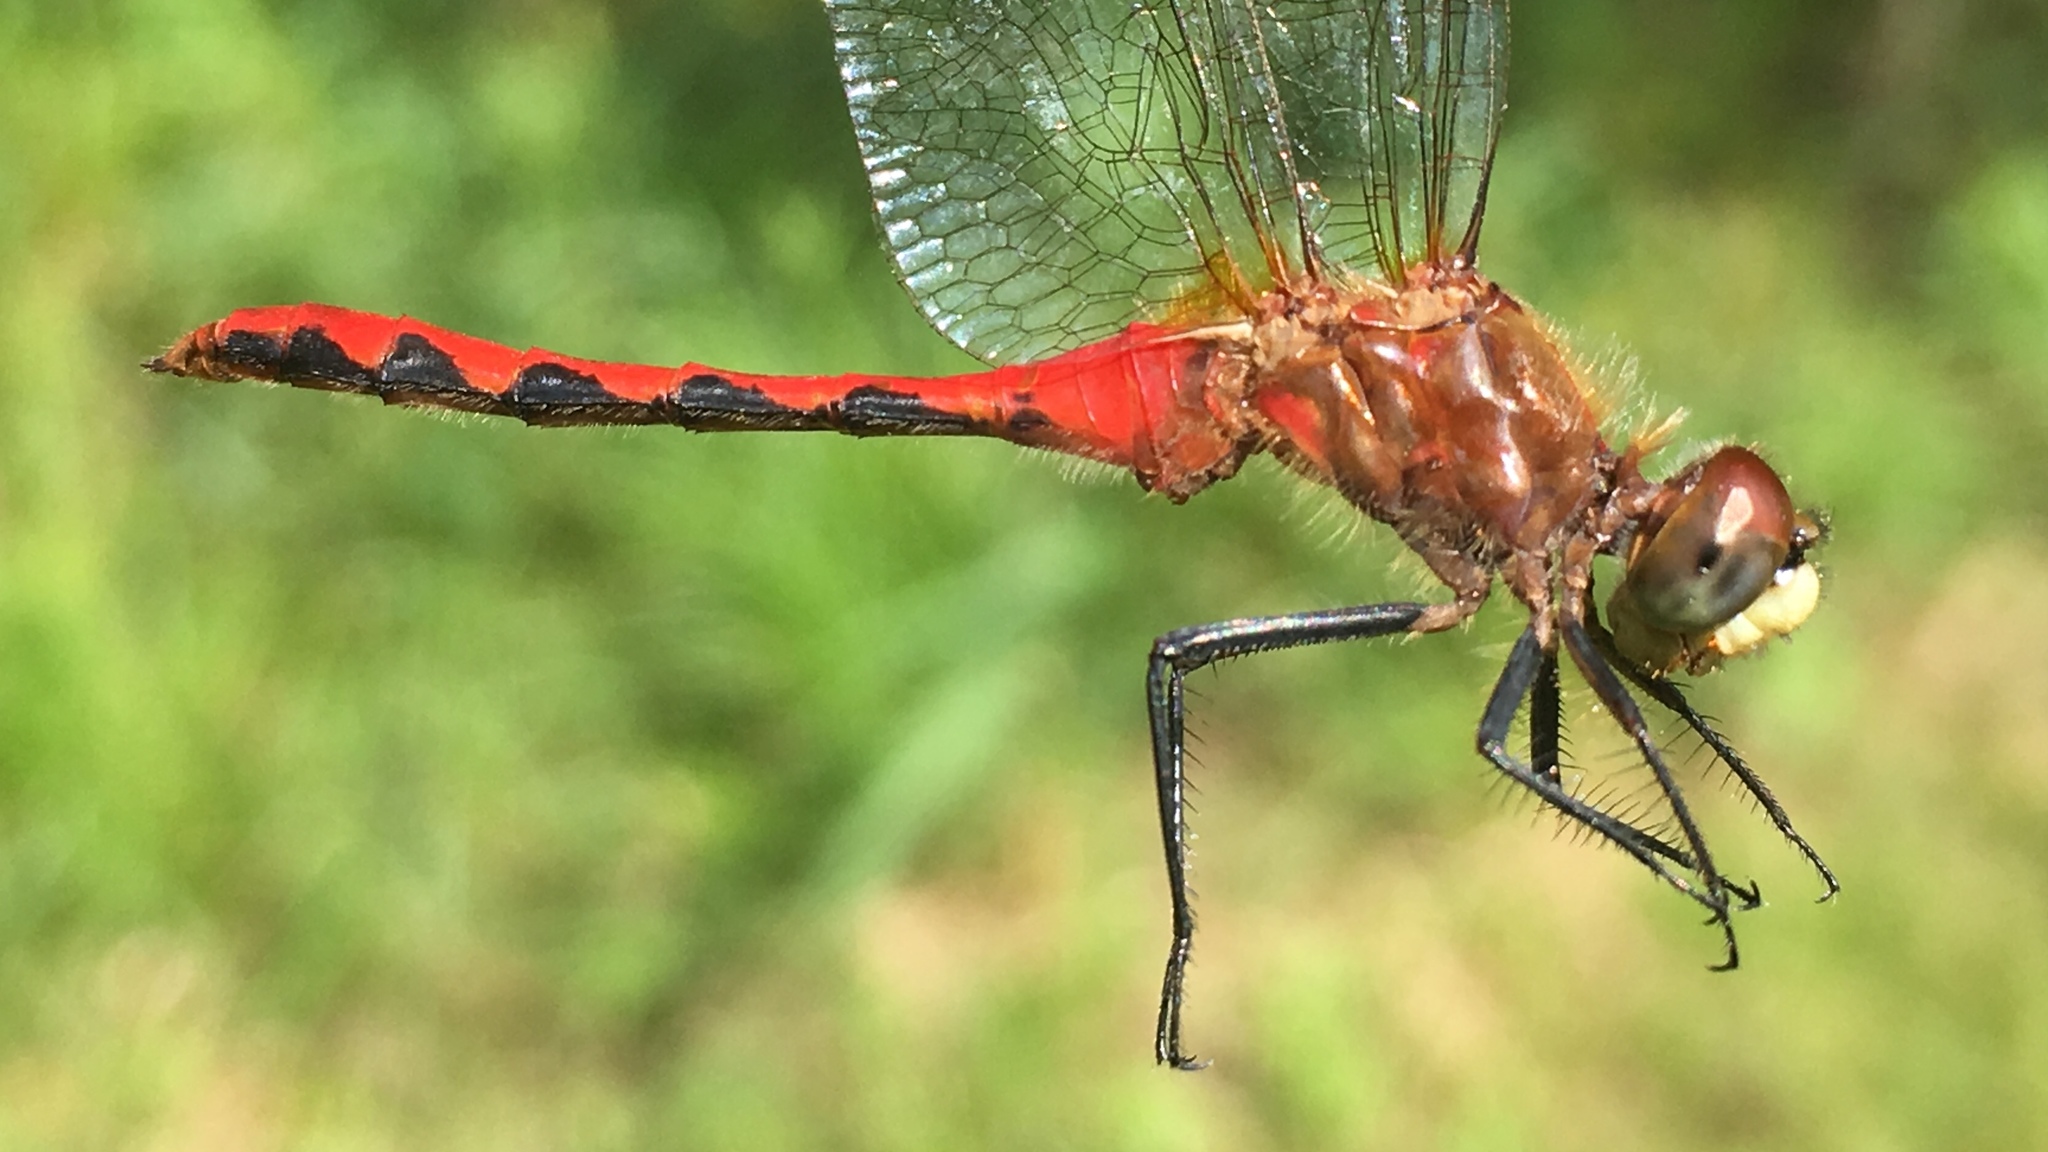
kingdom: Animalia
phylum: Arthropoda
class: Insecta
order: Odonata
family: Libellulidae
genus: Sympetrum
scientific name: Sympetrum obtrusum
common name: White-faced meadowhawk
